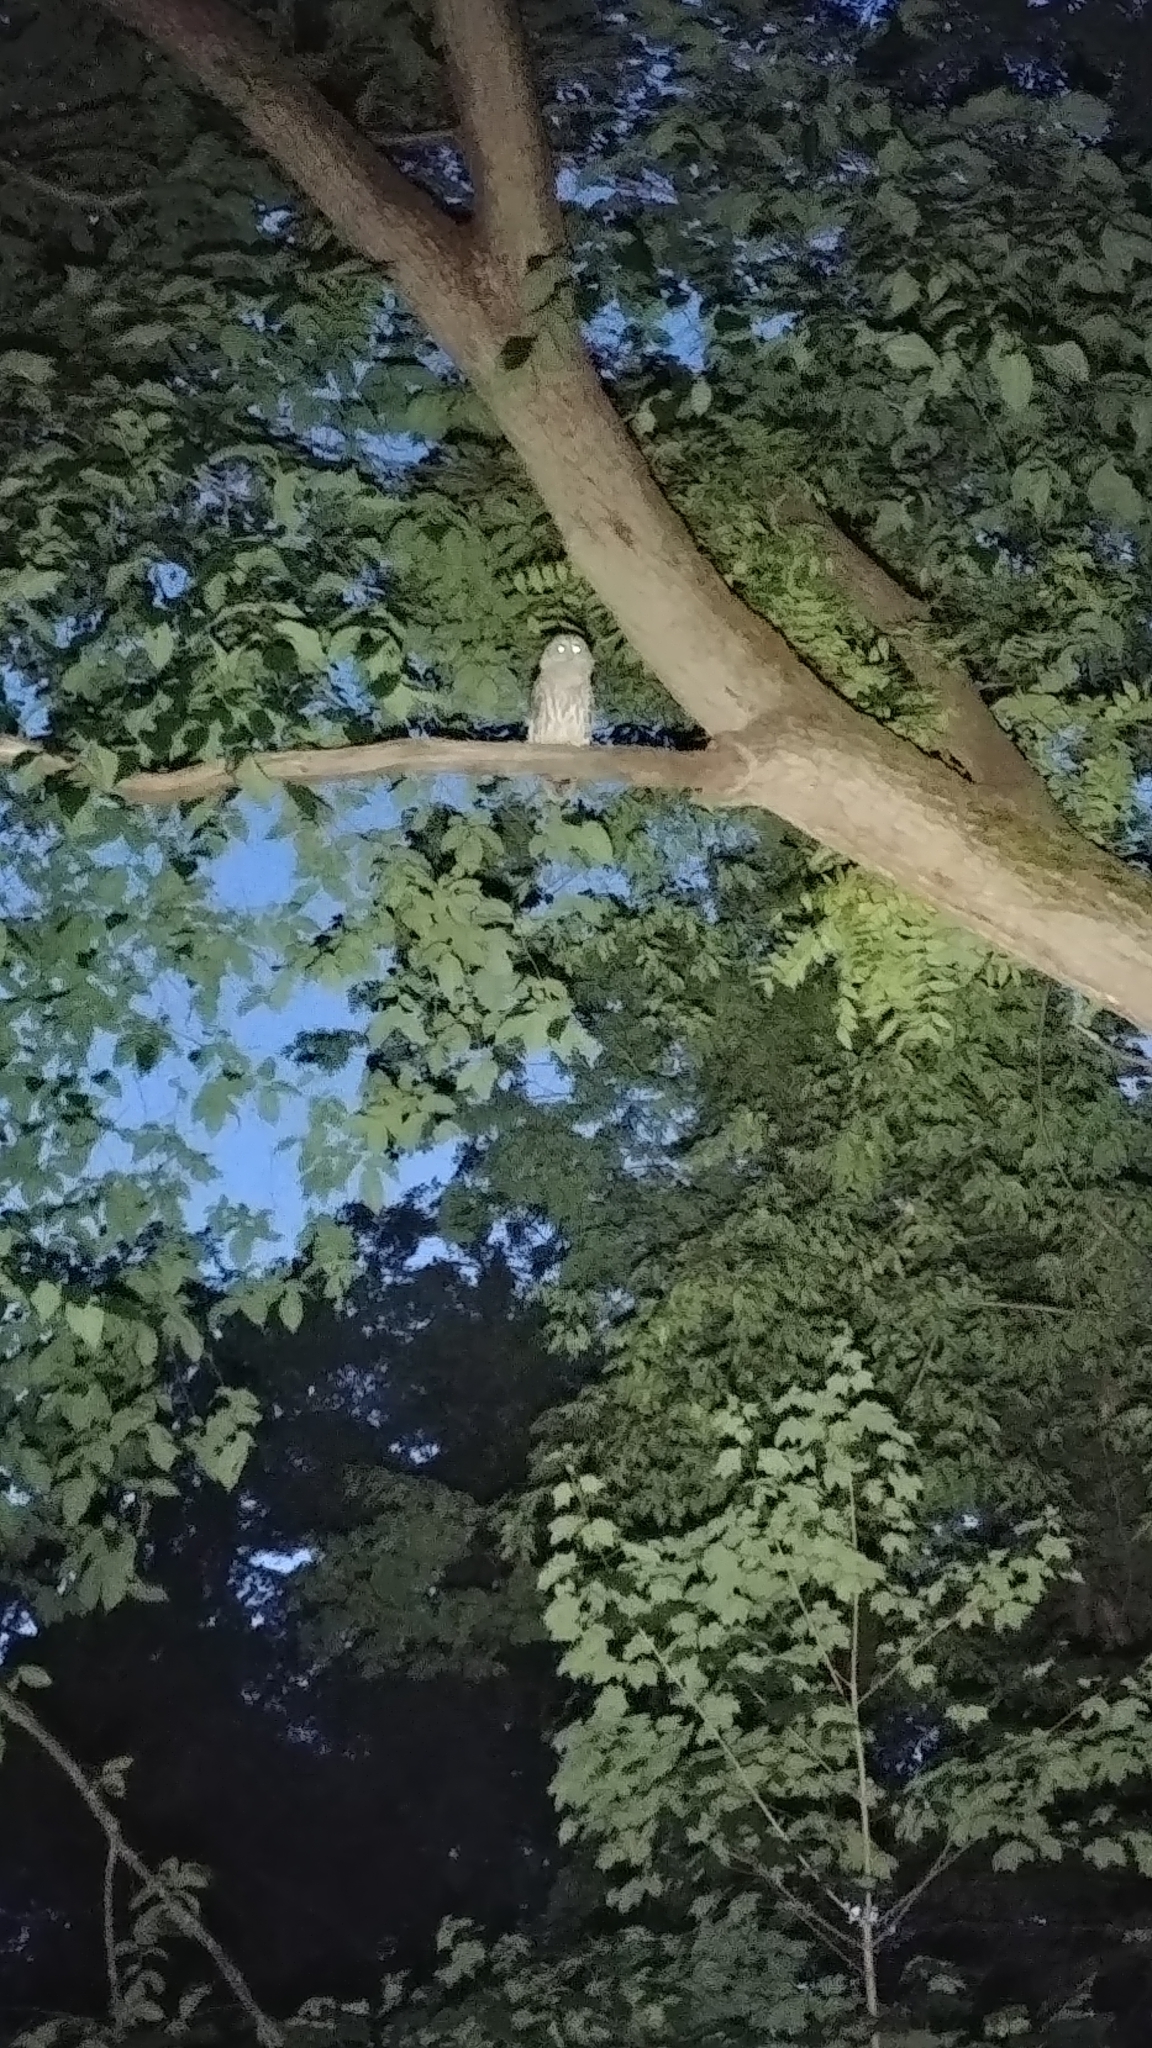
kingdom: Animalia
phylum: Chordata
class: Aves
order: Strigiformes
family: Strigidae
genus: Strix
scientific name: Strix varia
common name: Barred owl
